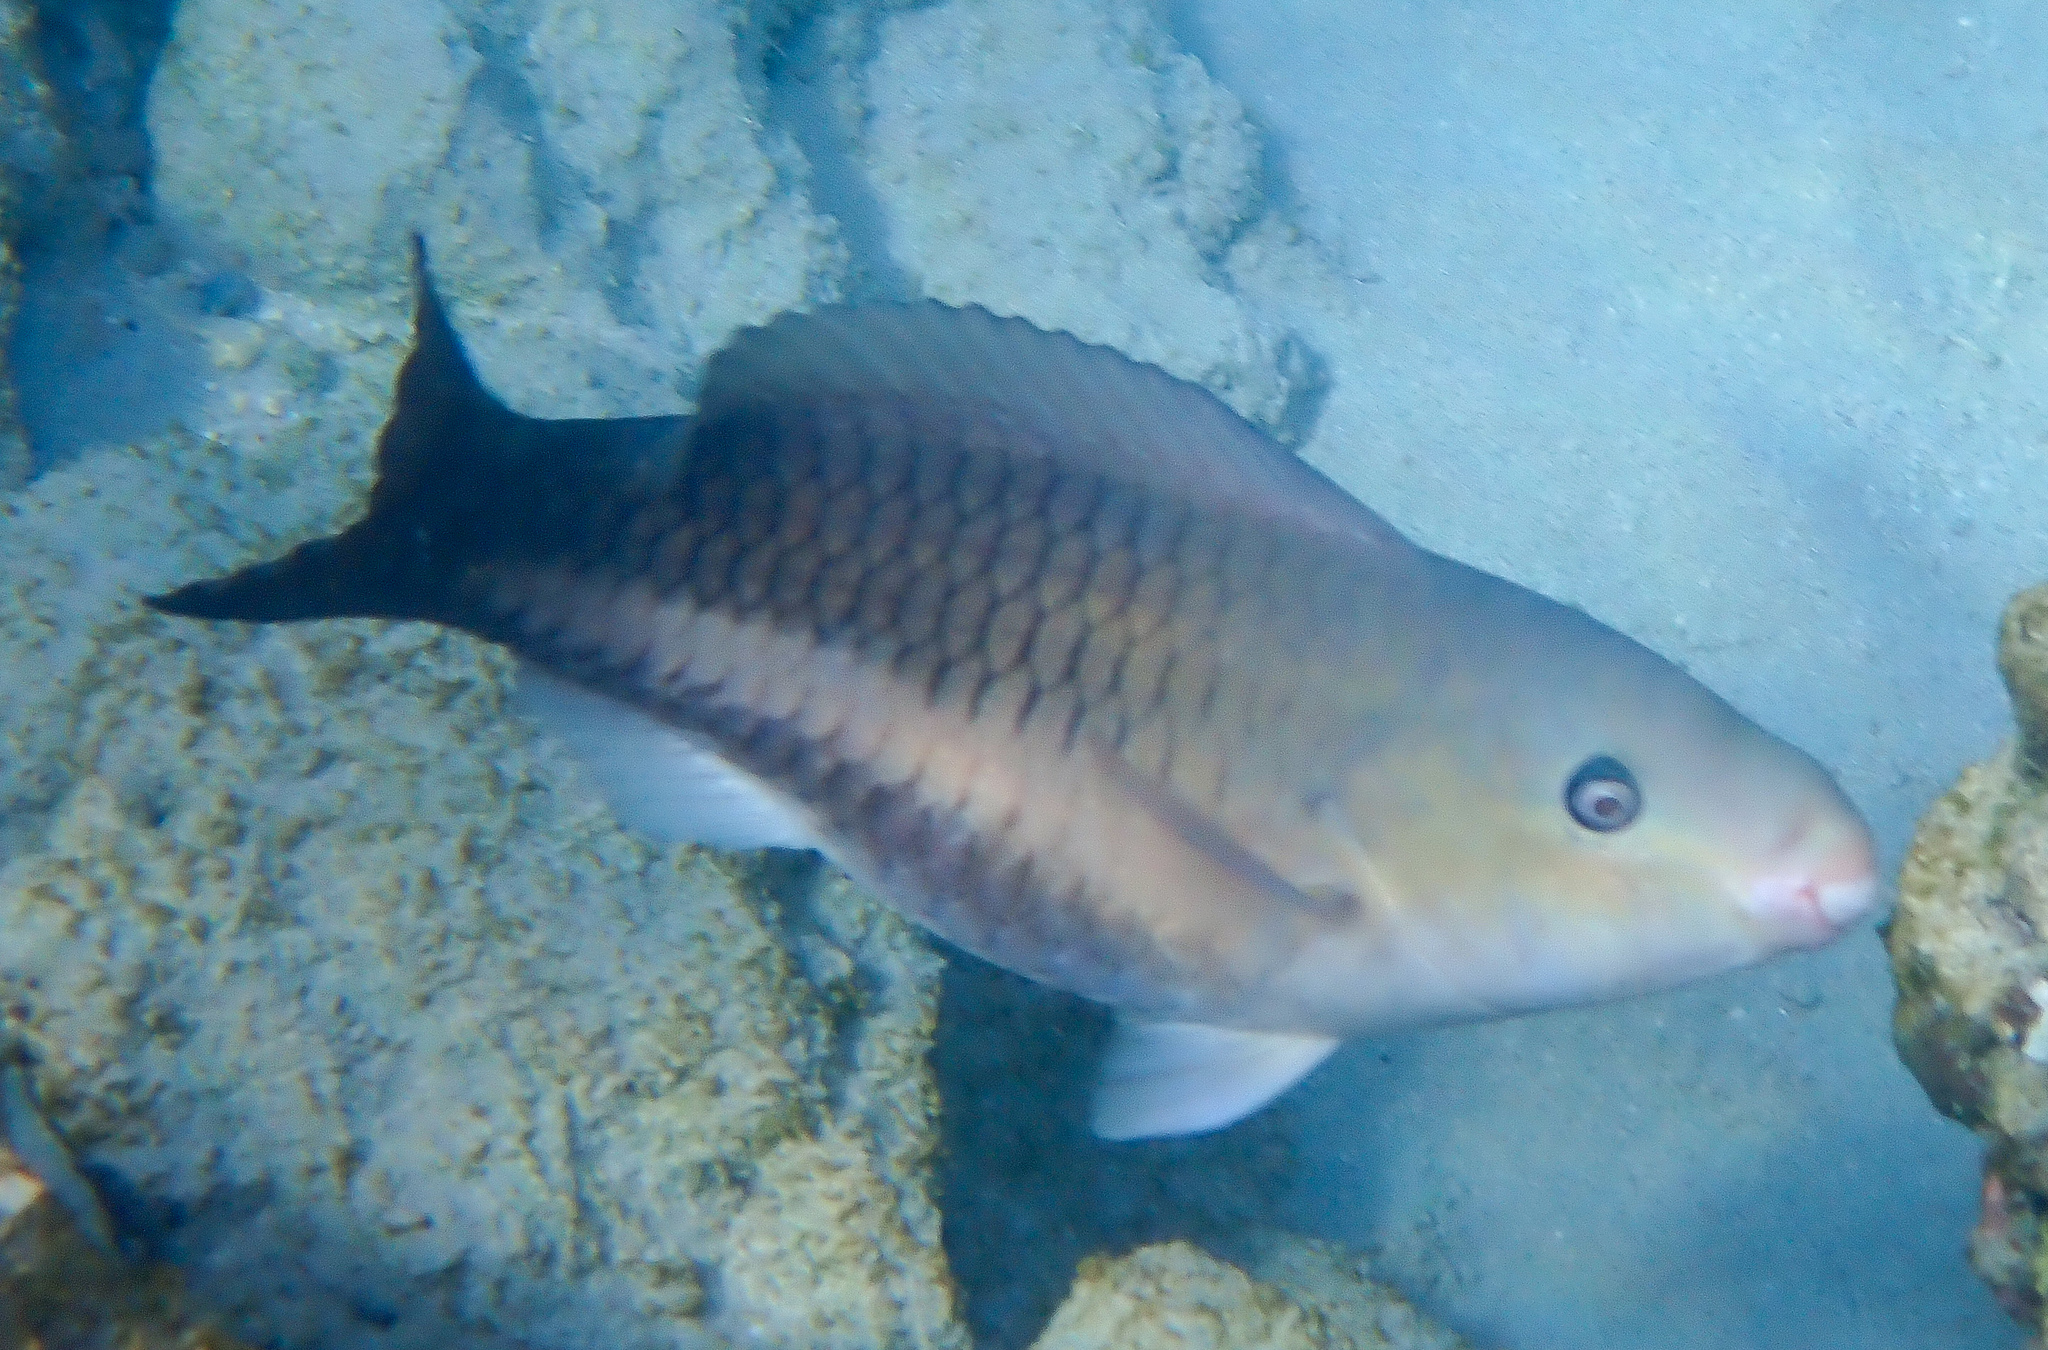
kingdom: Animalia
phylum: Chordata
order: Perciformes
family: Scaridae
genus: Scarus
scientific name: Scarus vetula
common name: Queen parrotfish
